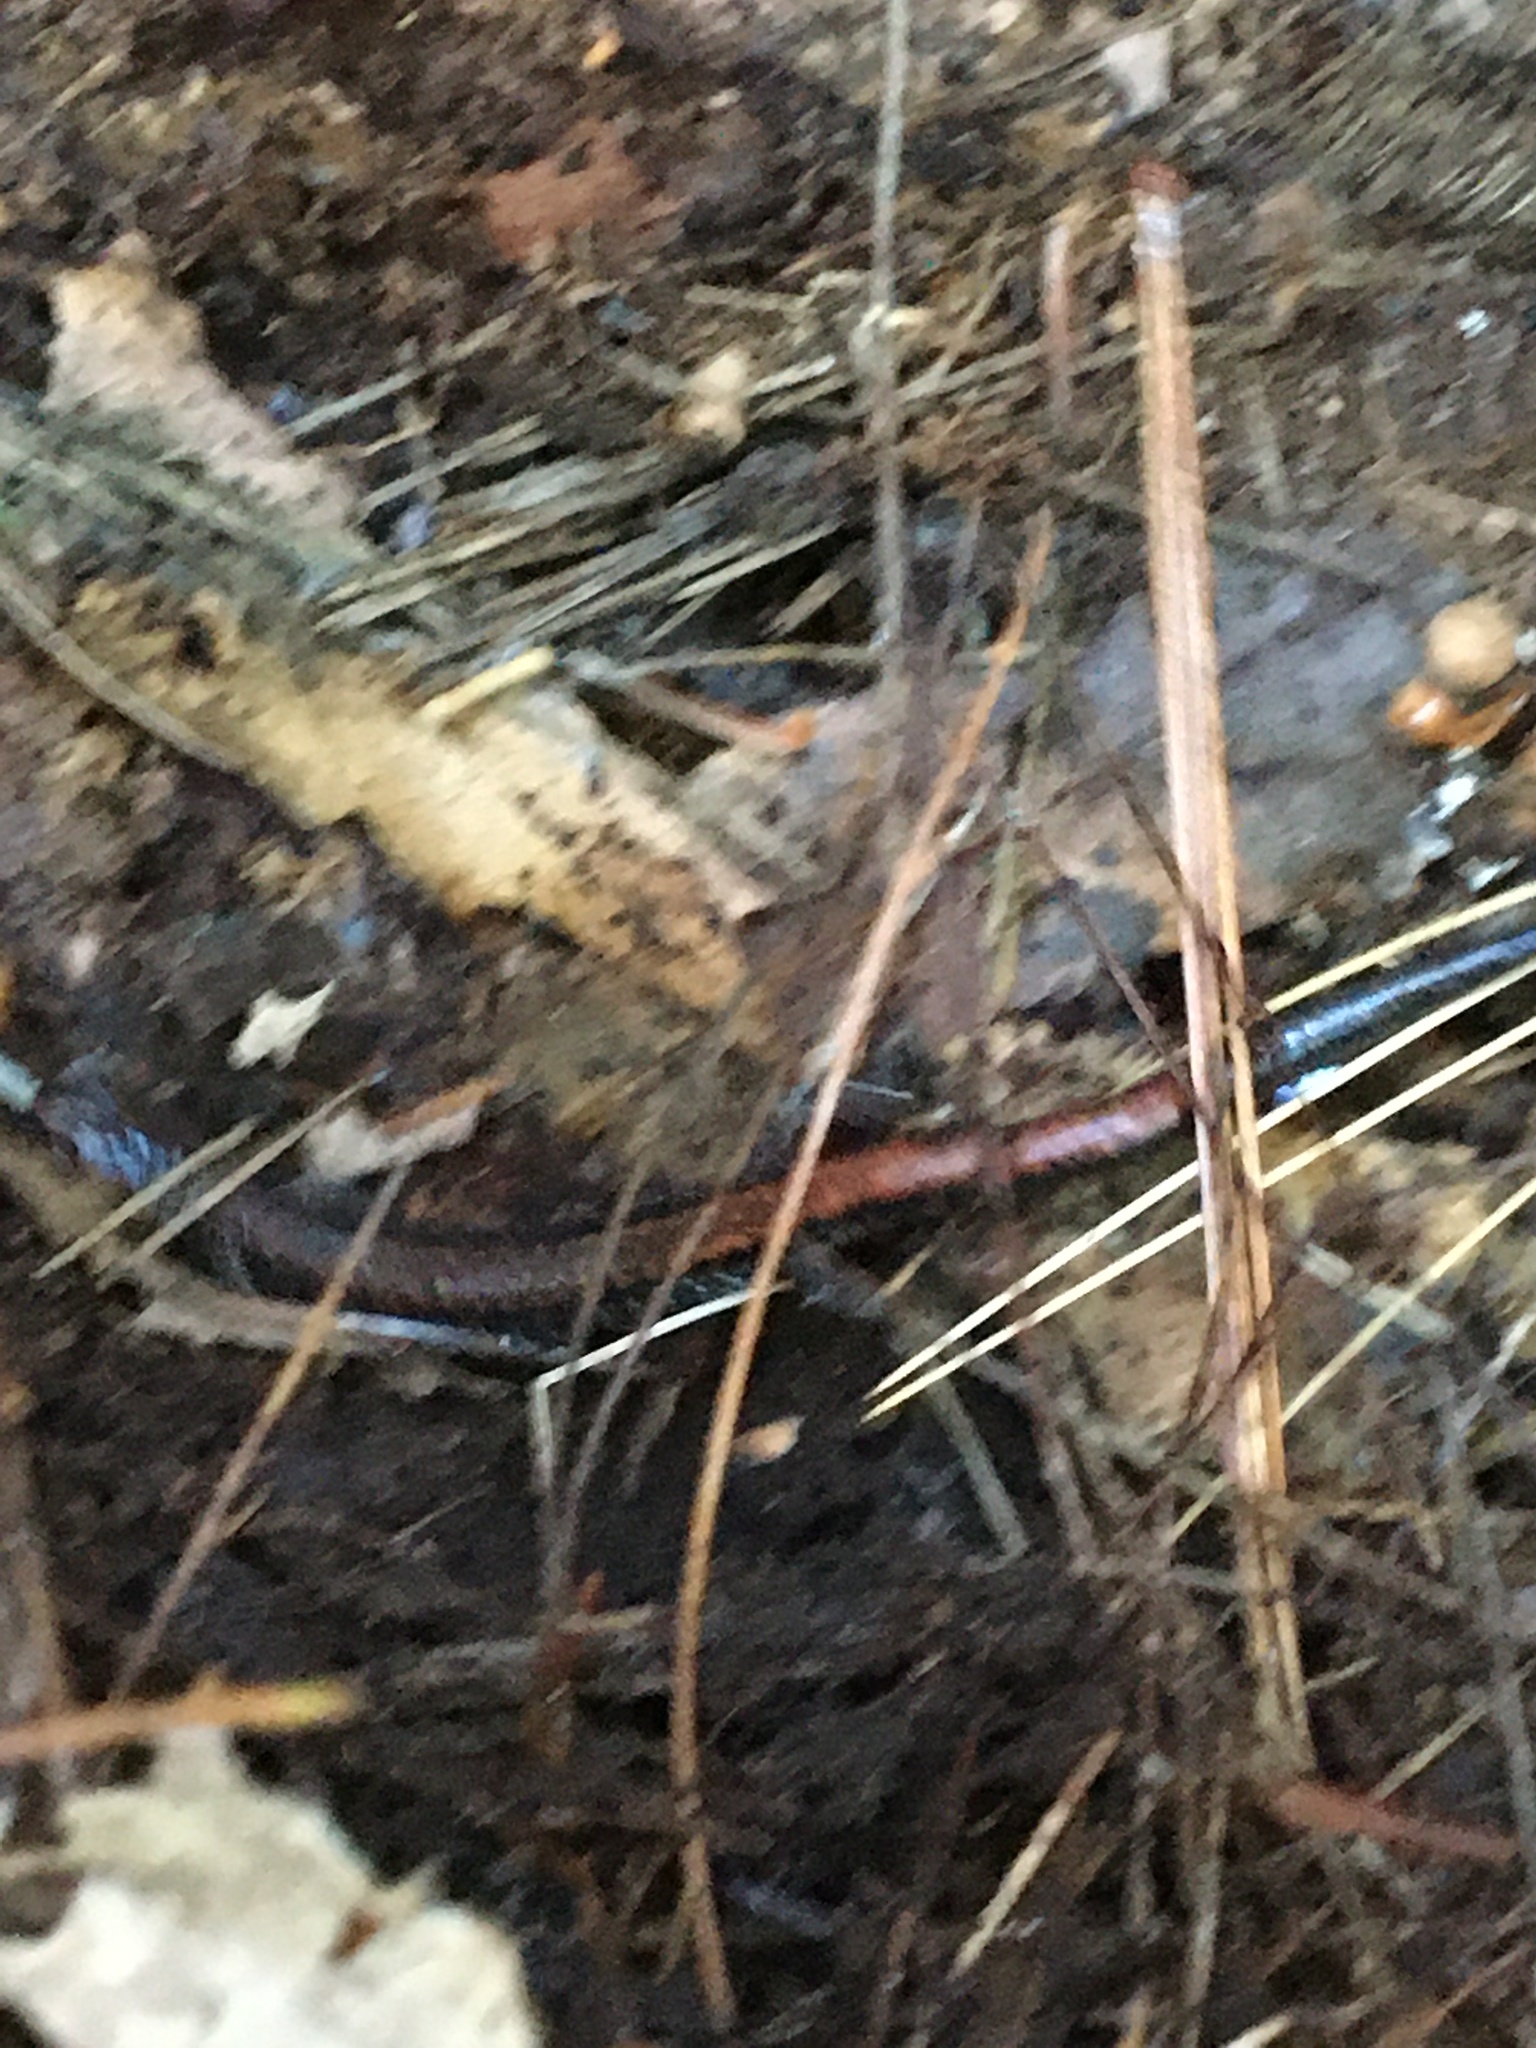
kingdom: Animalia
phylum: Chordata
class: Amphibia
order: Caudata
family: Plethodontidae
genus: Plethodon
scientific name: Plethodon cinereus
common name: Redback salamander
